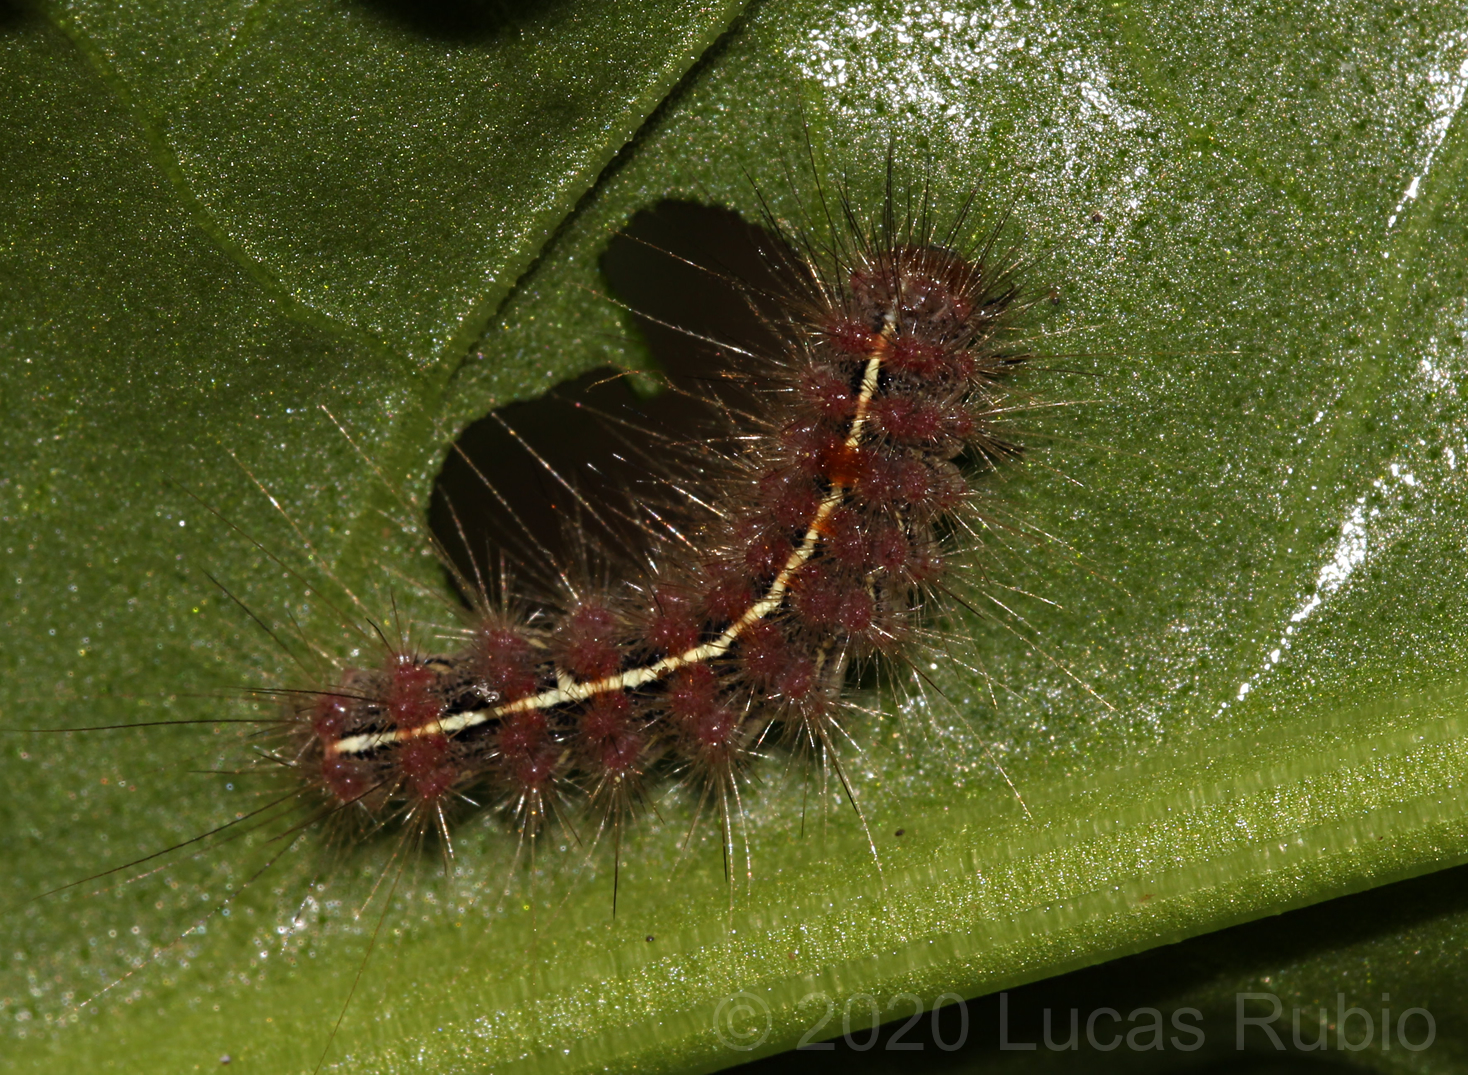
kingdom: Animalia
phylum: Arthropoda
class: Insecta
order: Lepidoptera
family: Erebidae
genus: Paracles
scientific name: Paracles fusca
